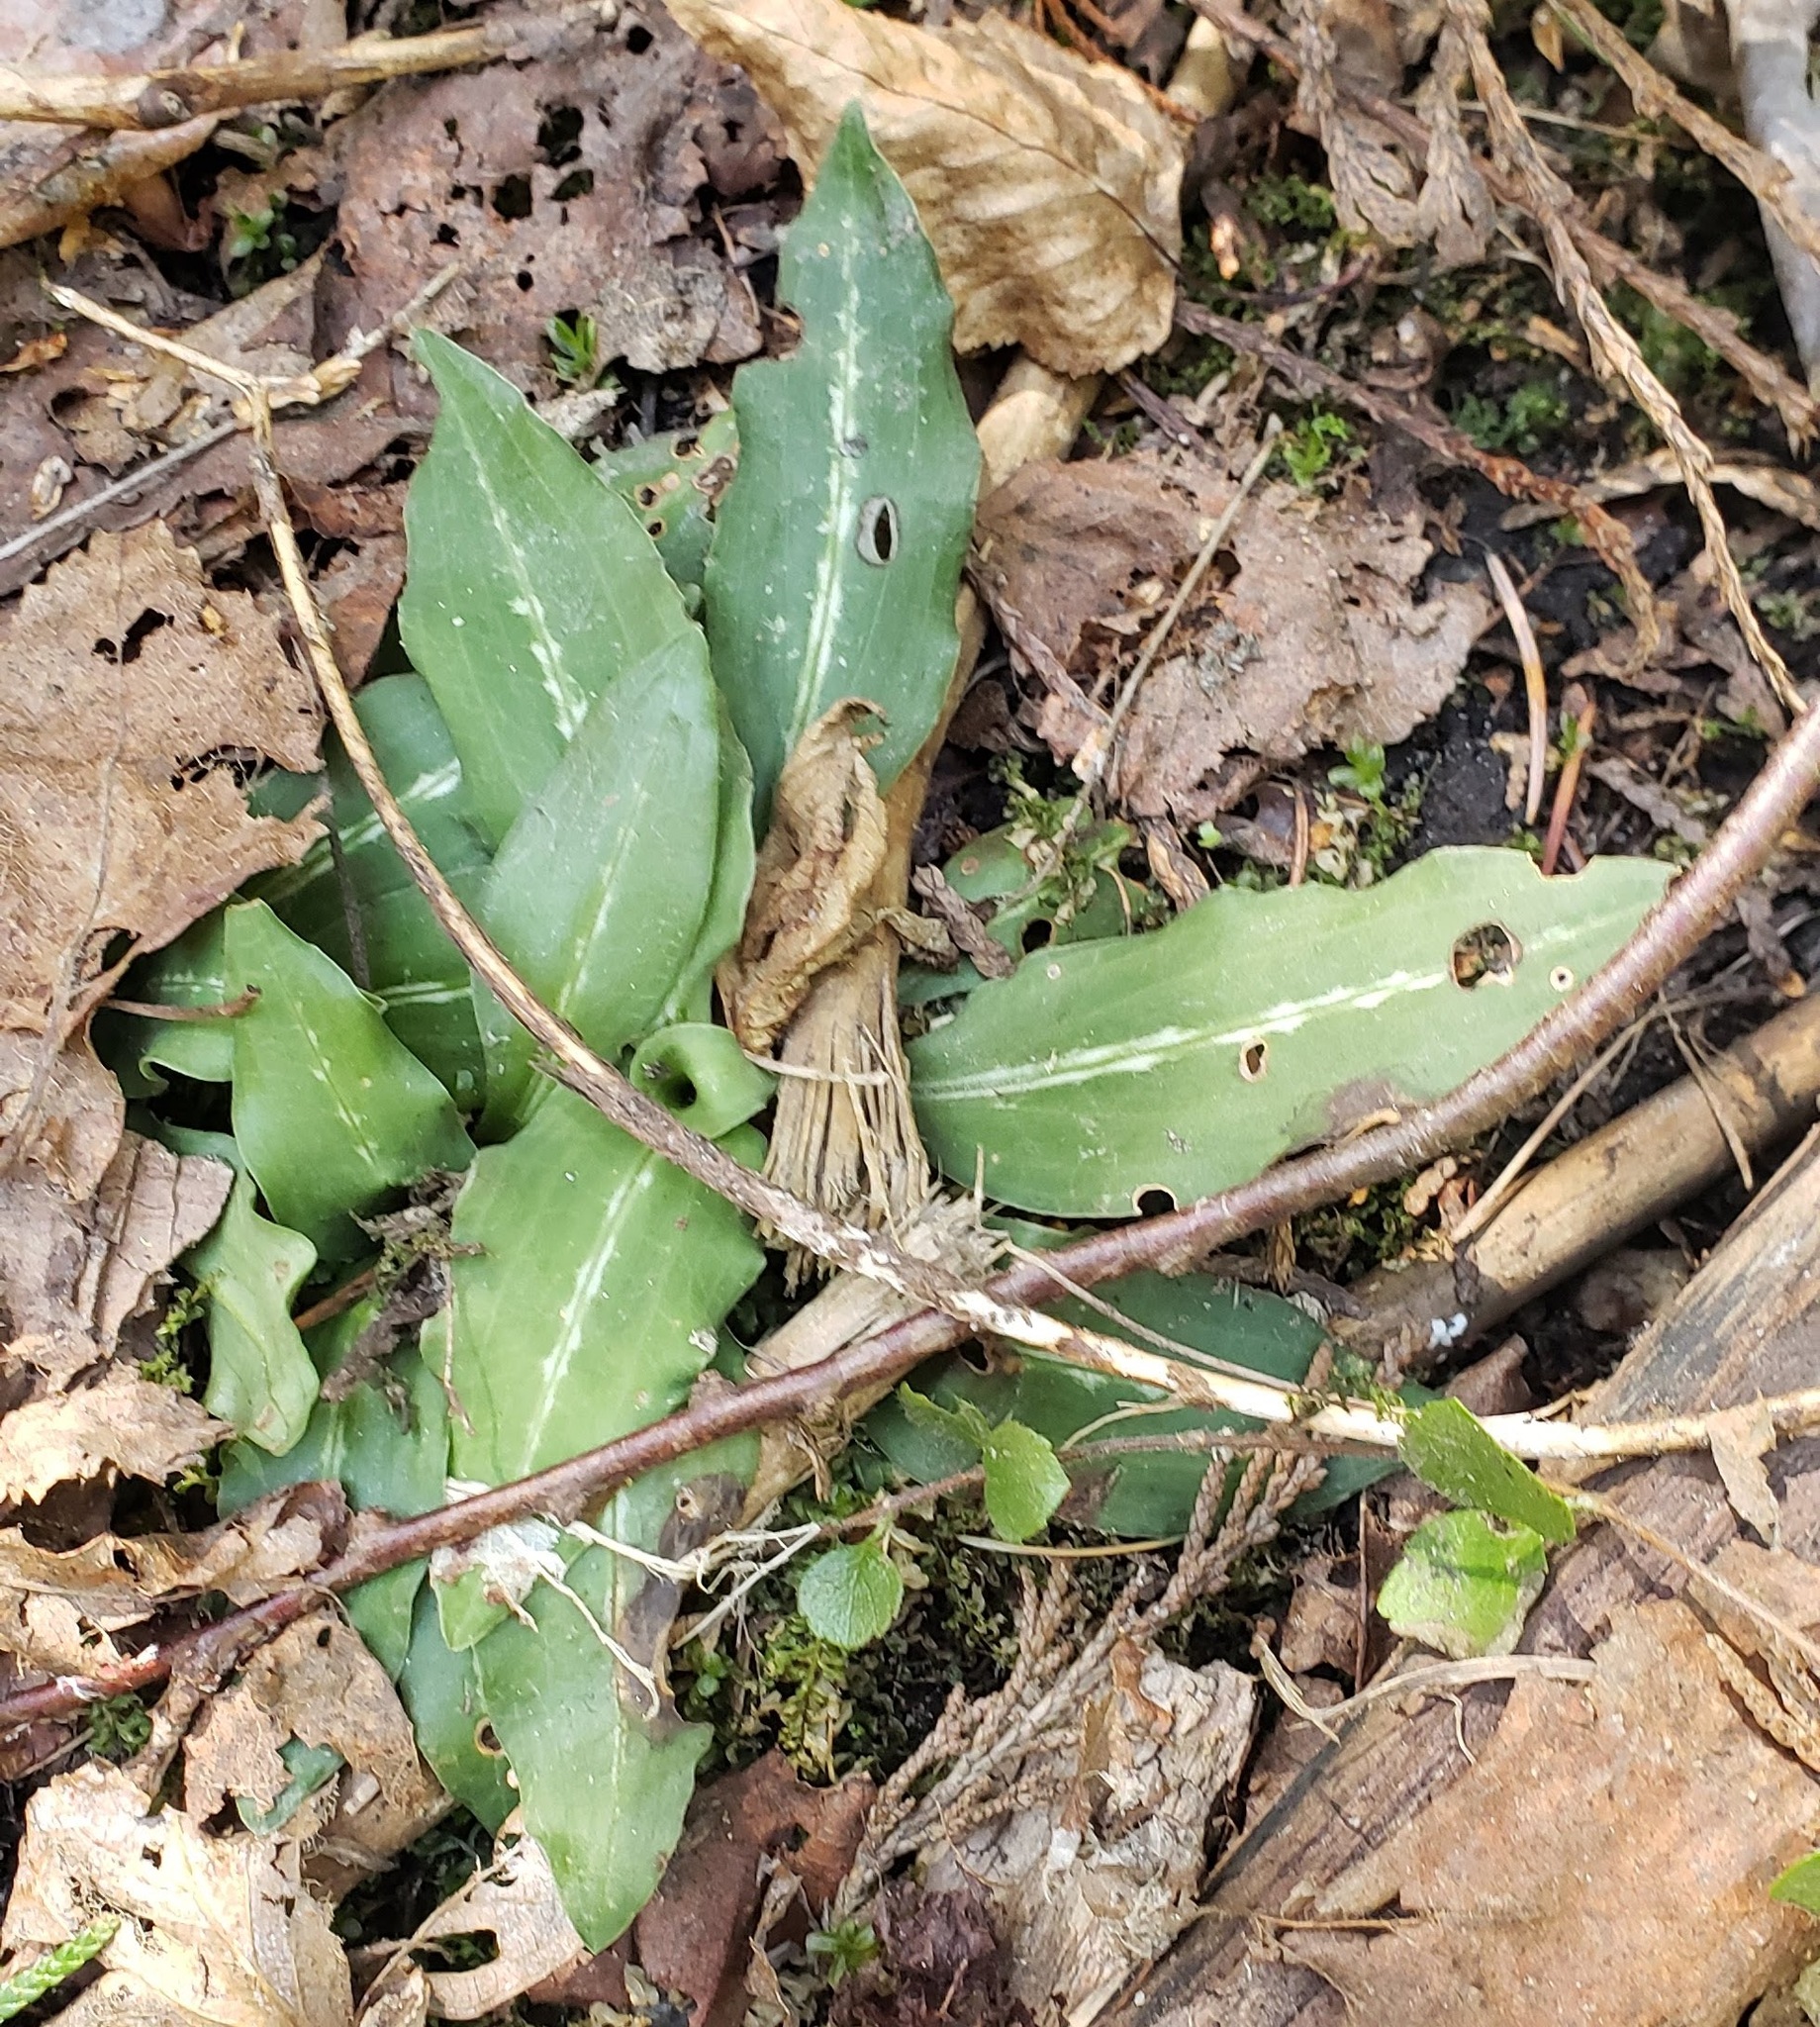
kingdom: Plantae
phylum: Tracheophyta
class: Liliopsida
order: Asparagales
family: Orchidaceae
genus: Goodyera
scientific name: Goodyera oblongifolia
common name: Giant rattlesnake-plantain
